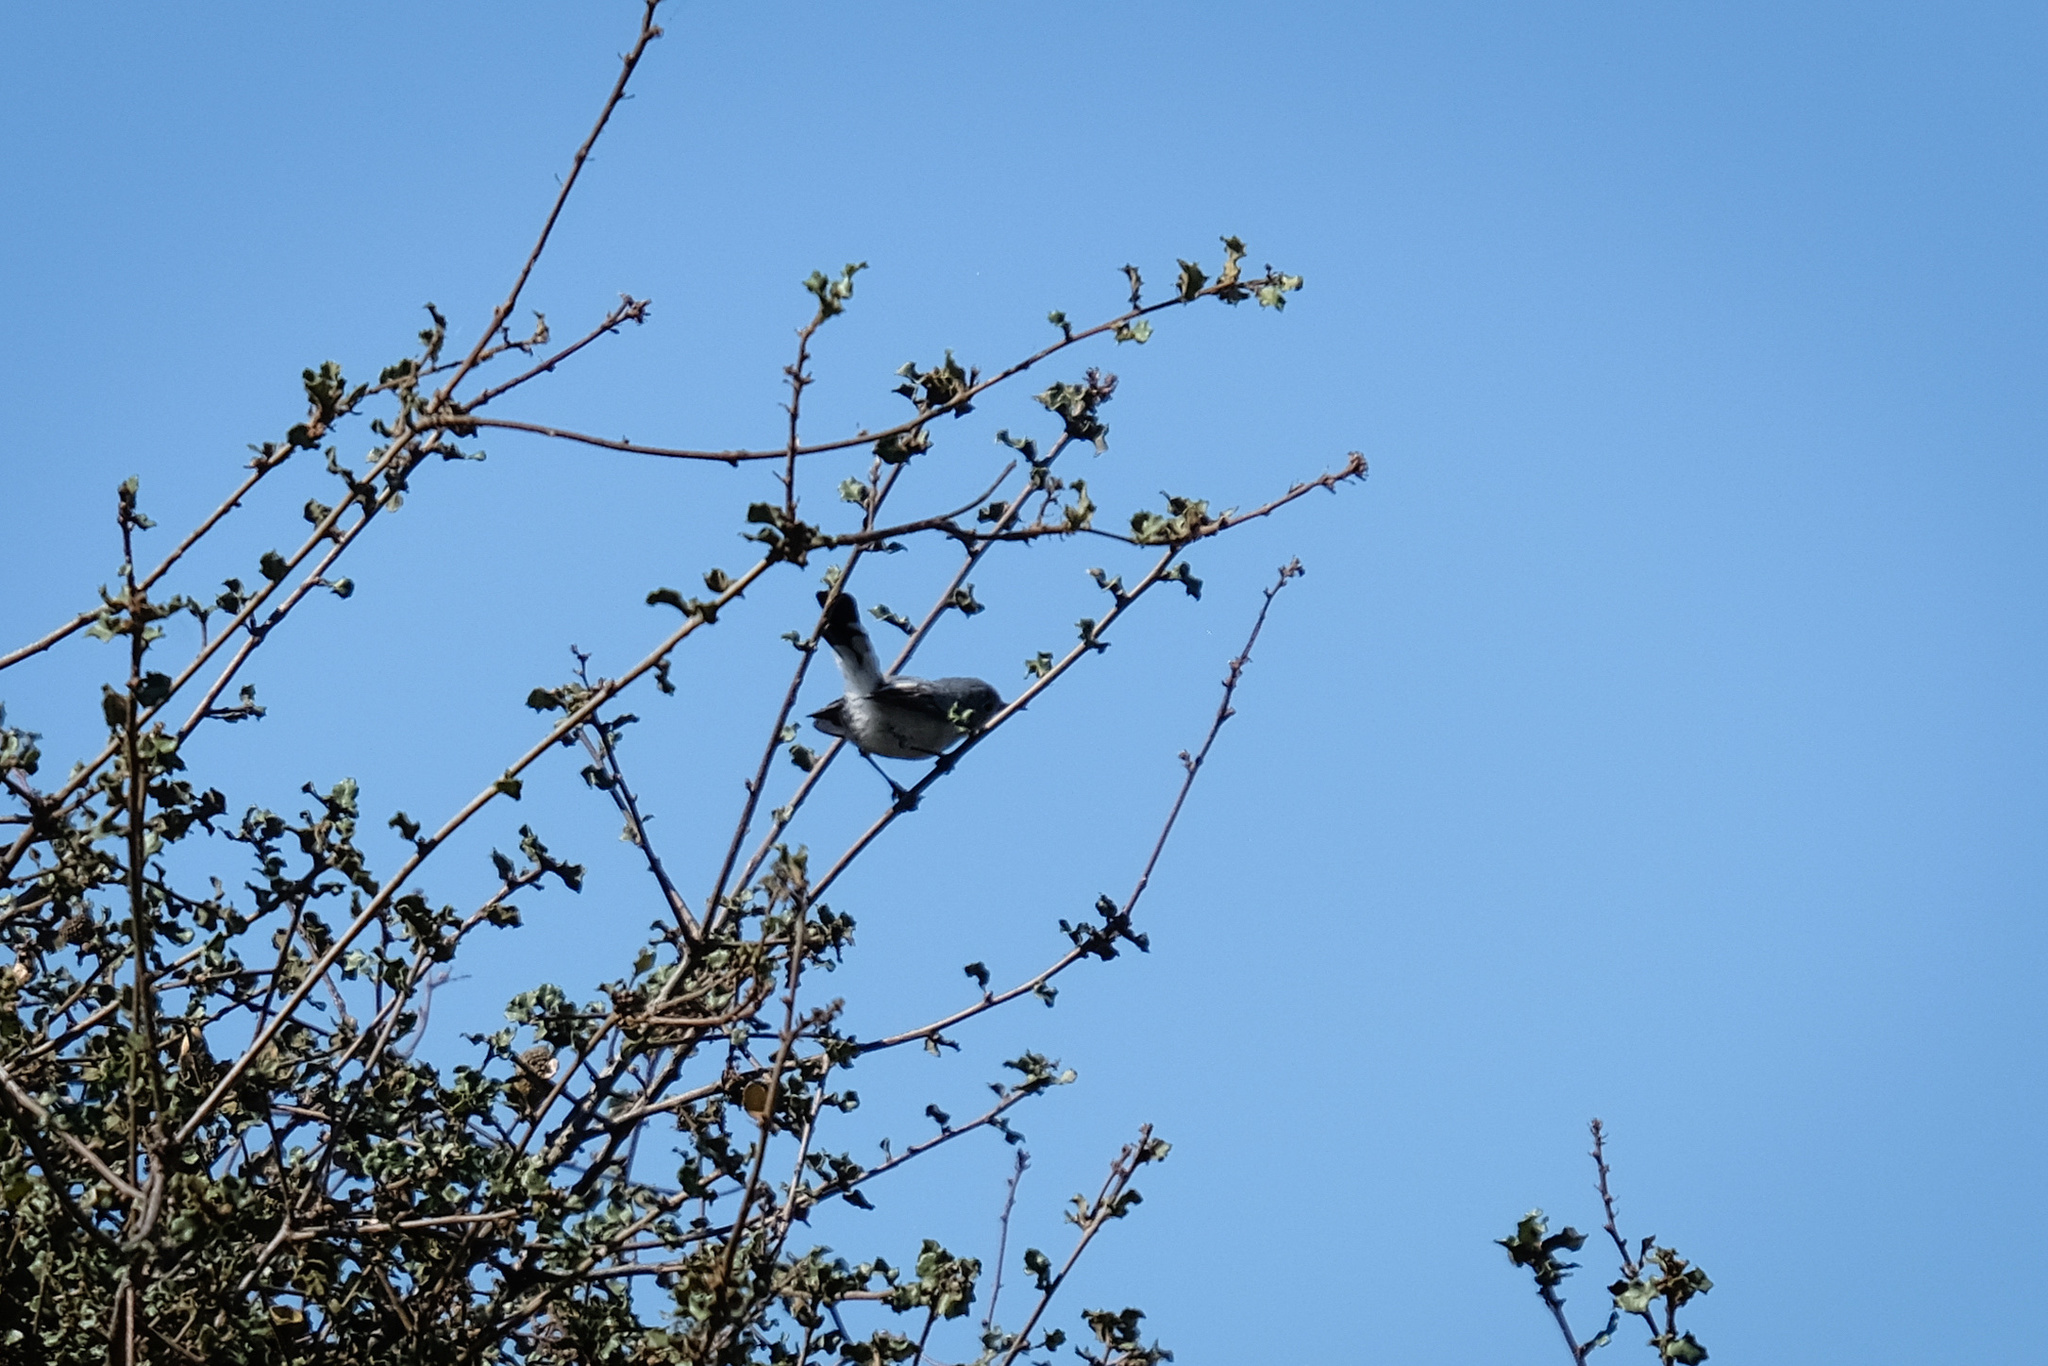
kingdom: Animalia
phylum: Chordata
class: Aves
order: Passeriformes
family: Polioptilidae
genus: Polioptila
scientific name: Polioptila californica
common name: California gnatcatcher
